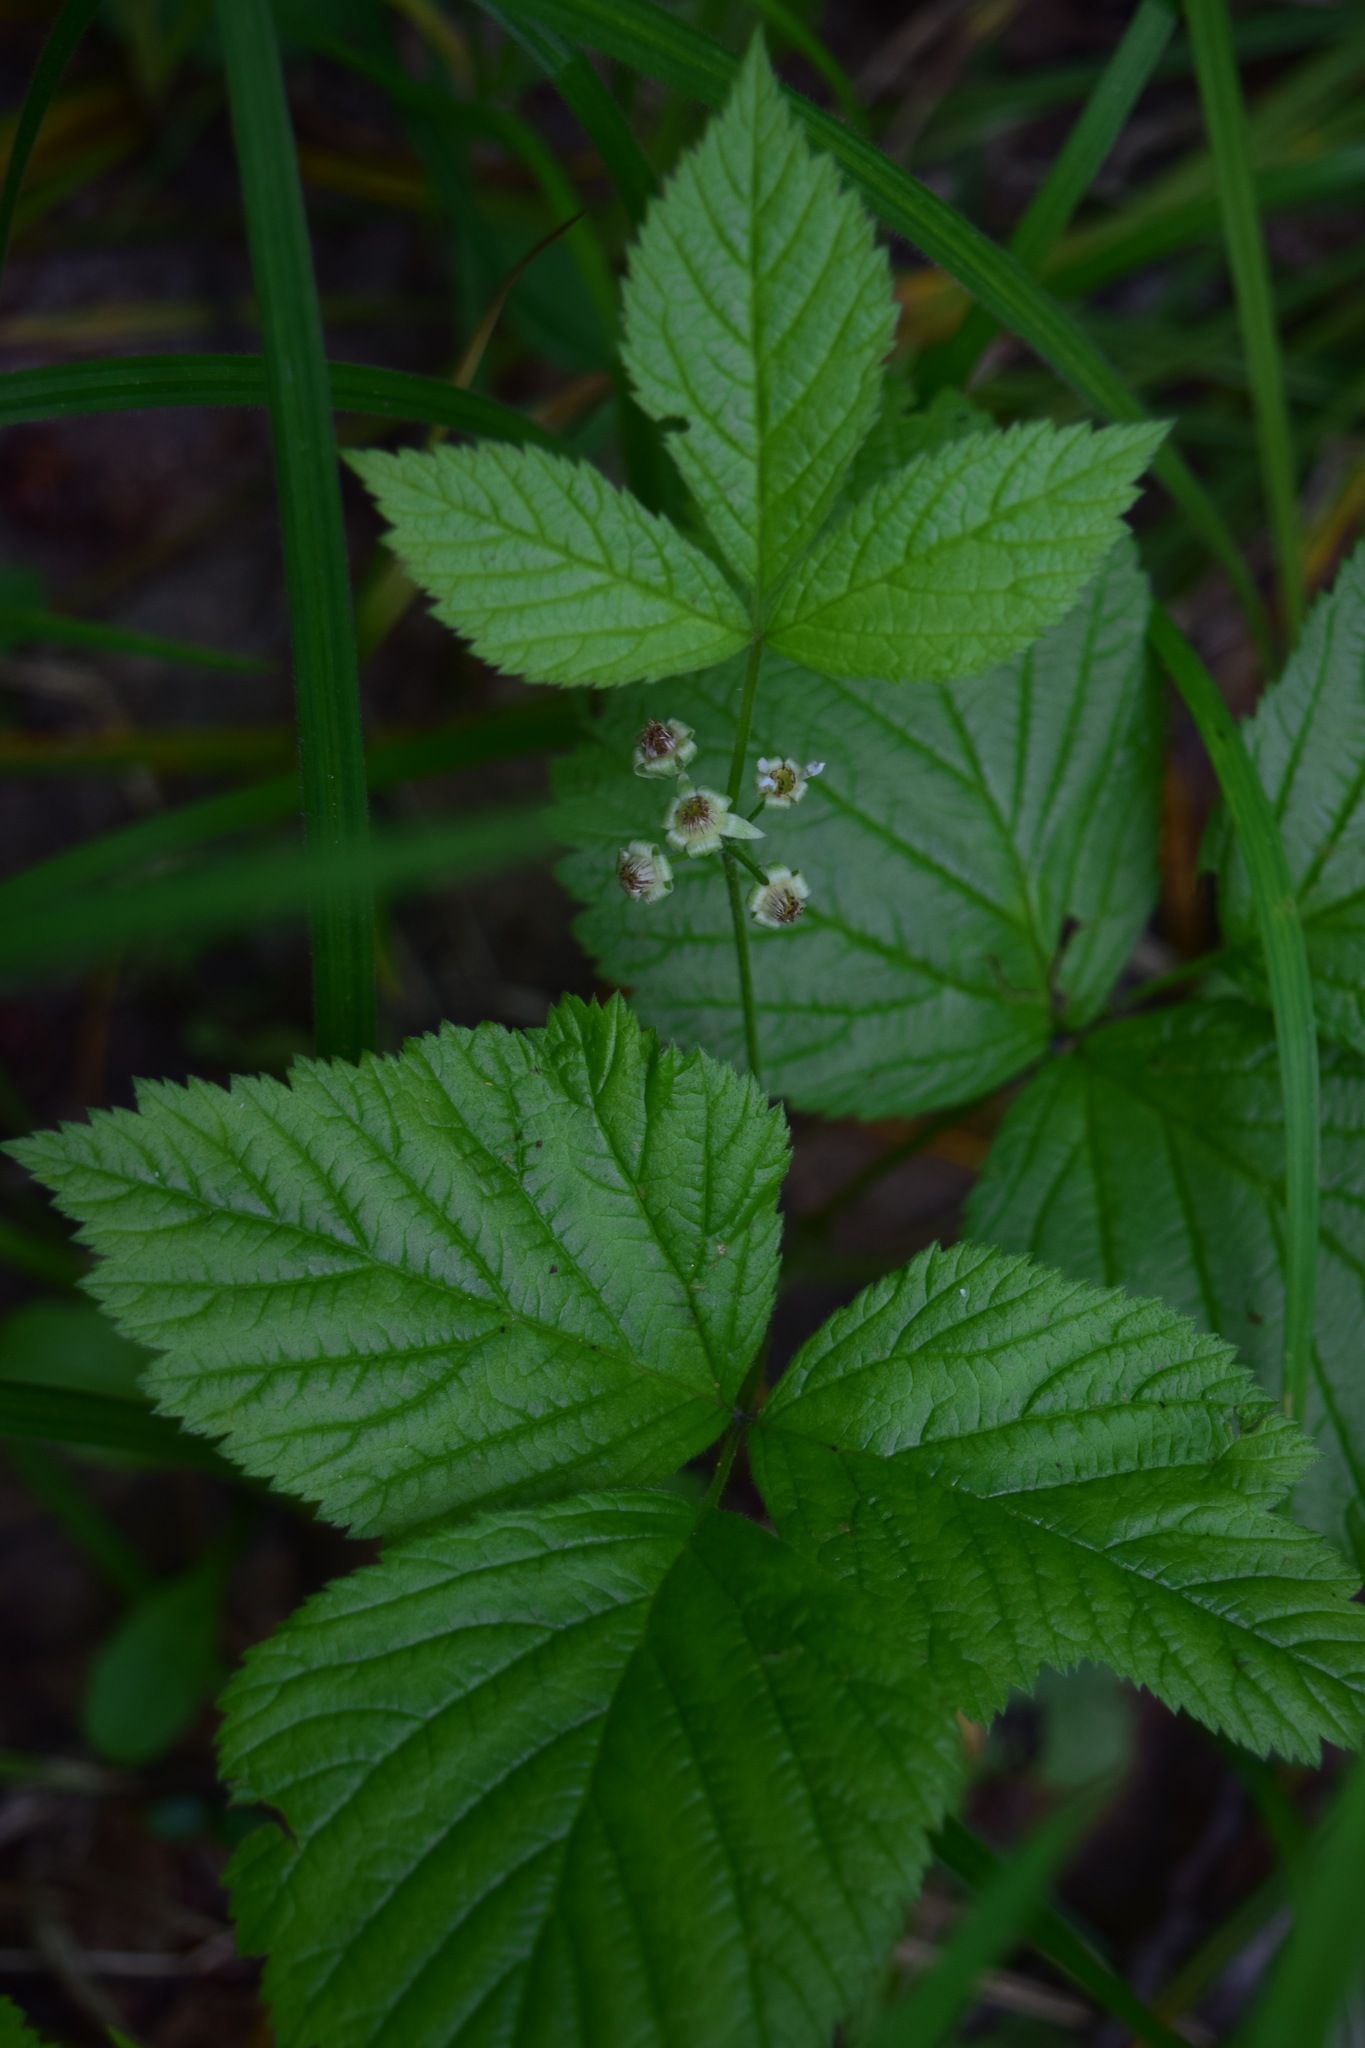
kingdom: Plantae
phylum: Tracheophyta
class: Magnoliopsida
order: Rosales
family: Rosaceae
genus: Rubus
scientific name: Rubus saxatilis
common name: Stone bramble
